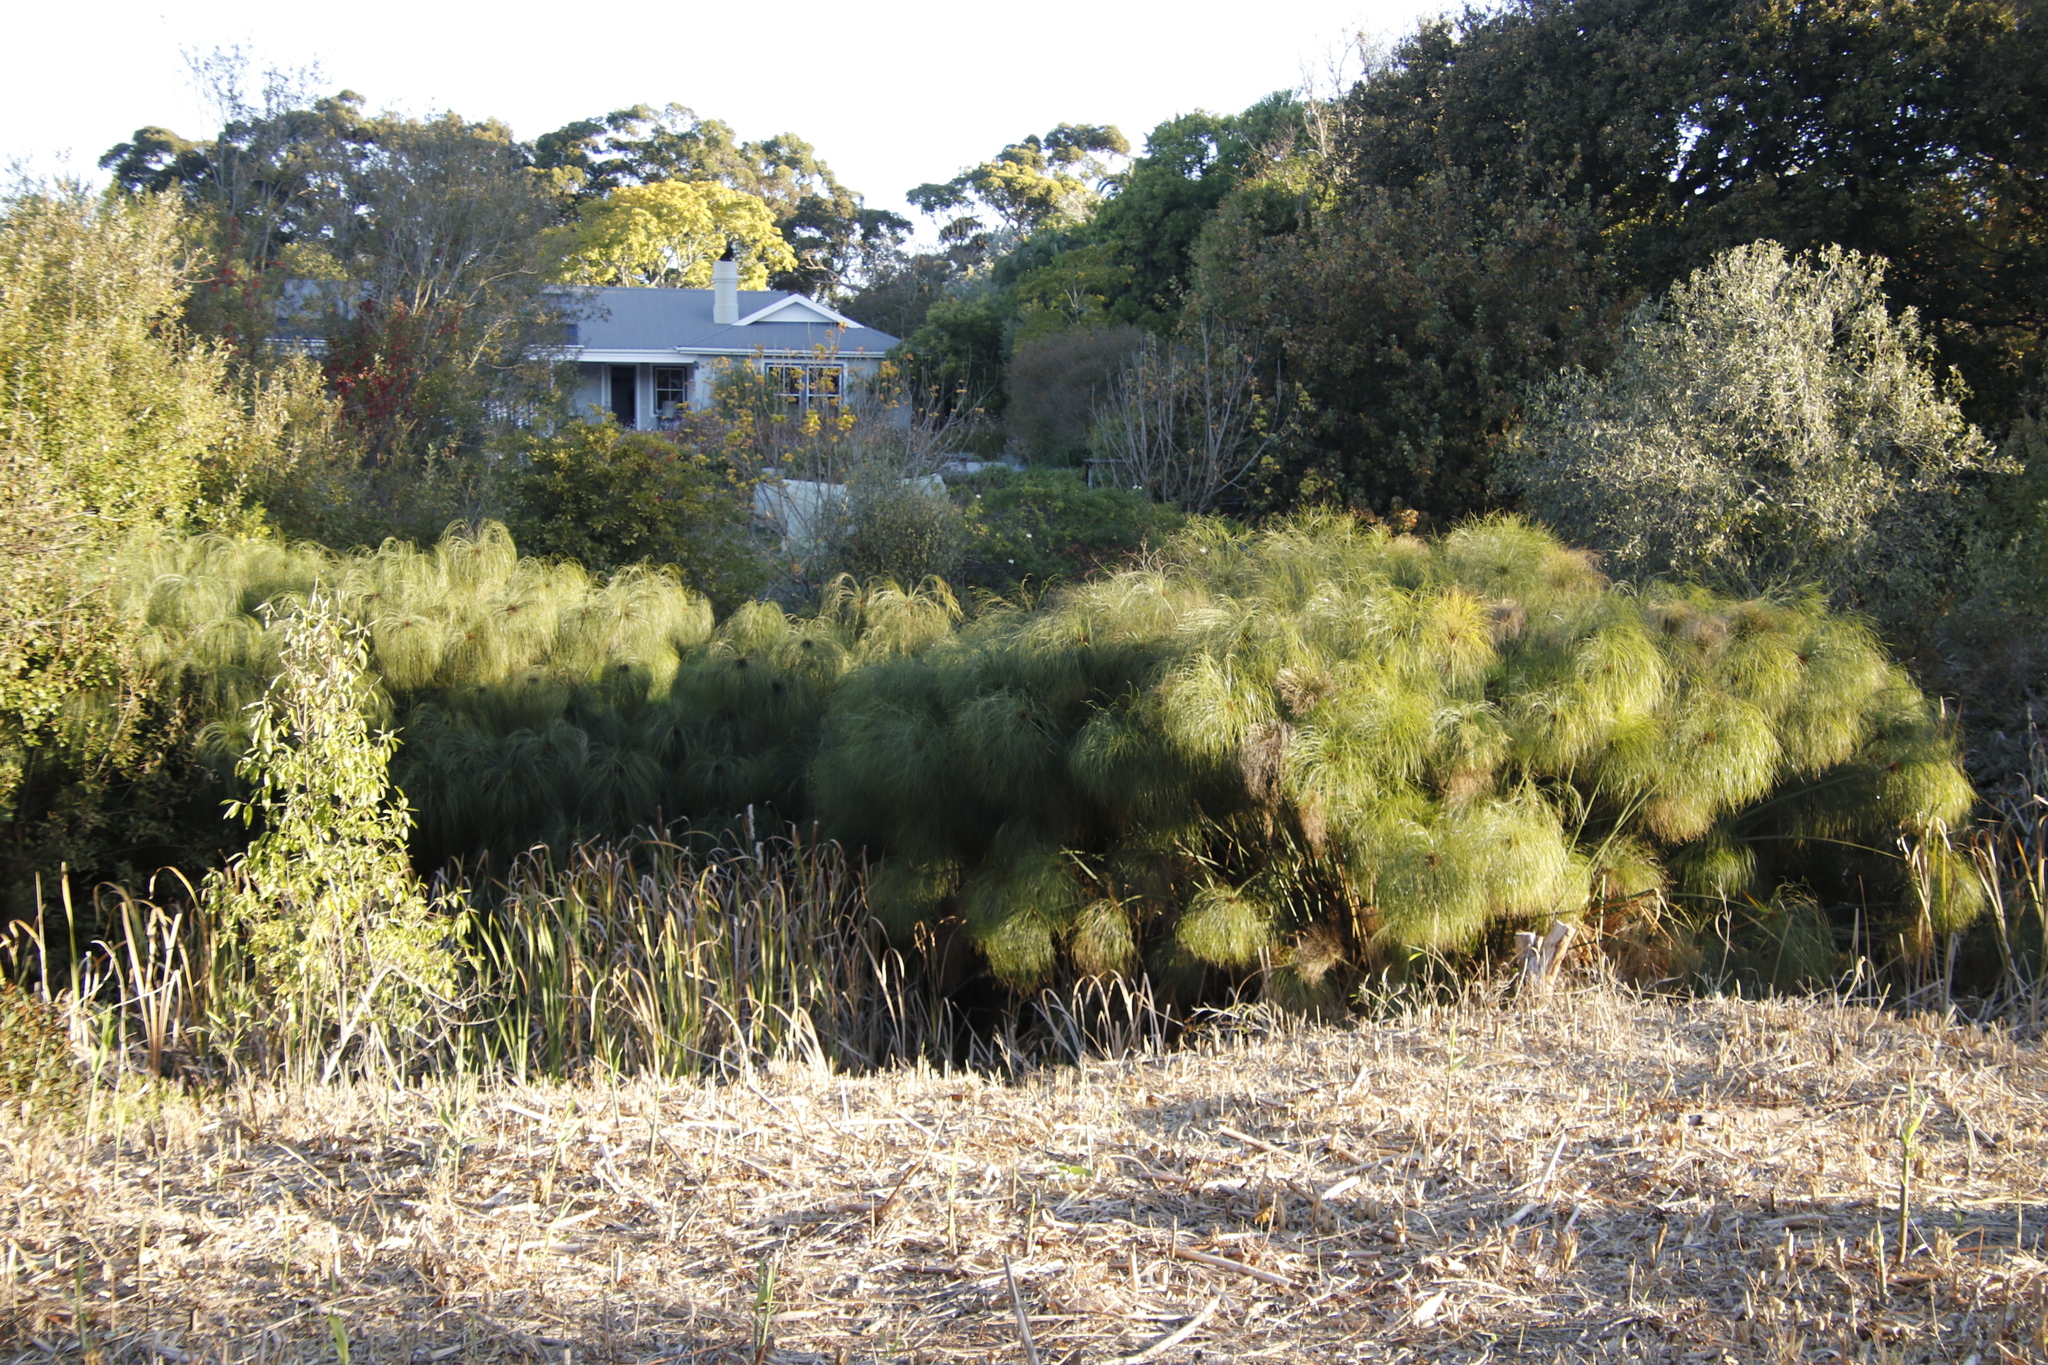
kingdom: Plantae
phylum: Tracheophyta
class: Liliopsida
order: Poales
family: Cyperaceae
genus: Cyperus
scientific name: Cyperus papyrus
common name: Papyrus
